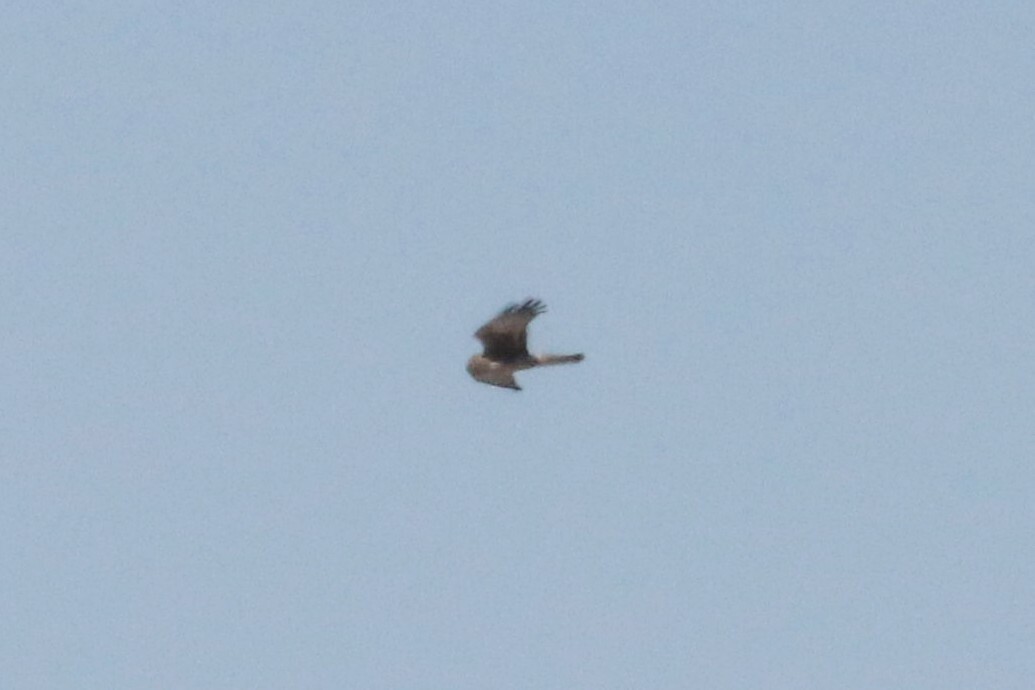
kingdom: Animalia
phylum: Chordata
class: Aves
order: Accipitriformes
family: Accipitridae
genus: Circus
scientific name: Circus cyaneus
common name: Hen harrier
